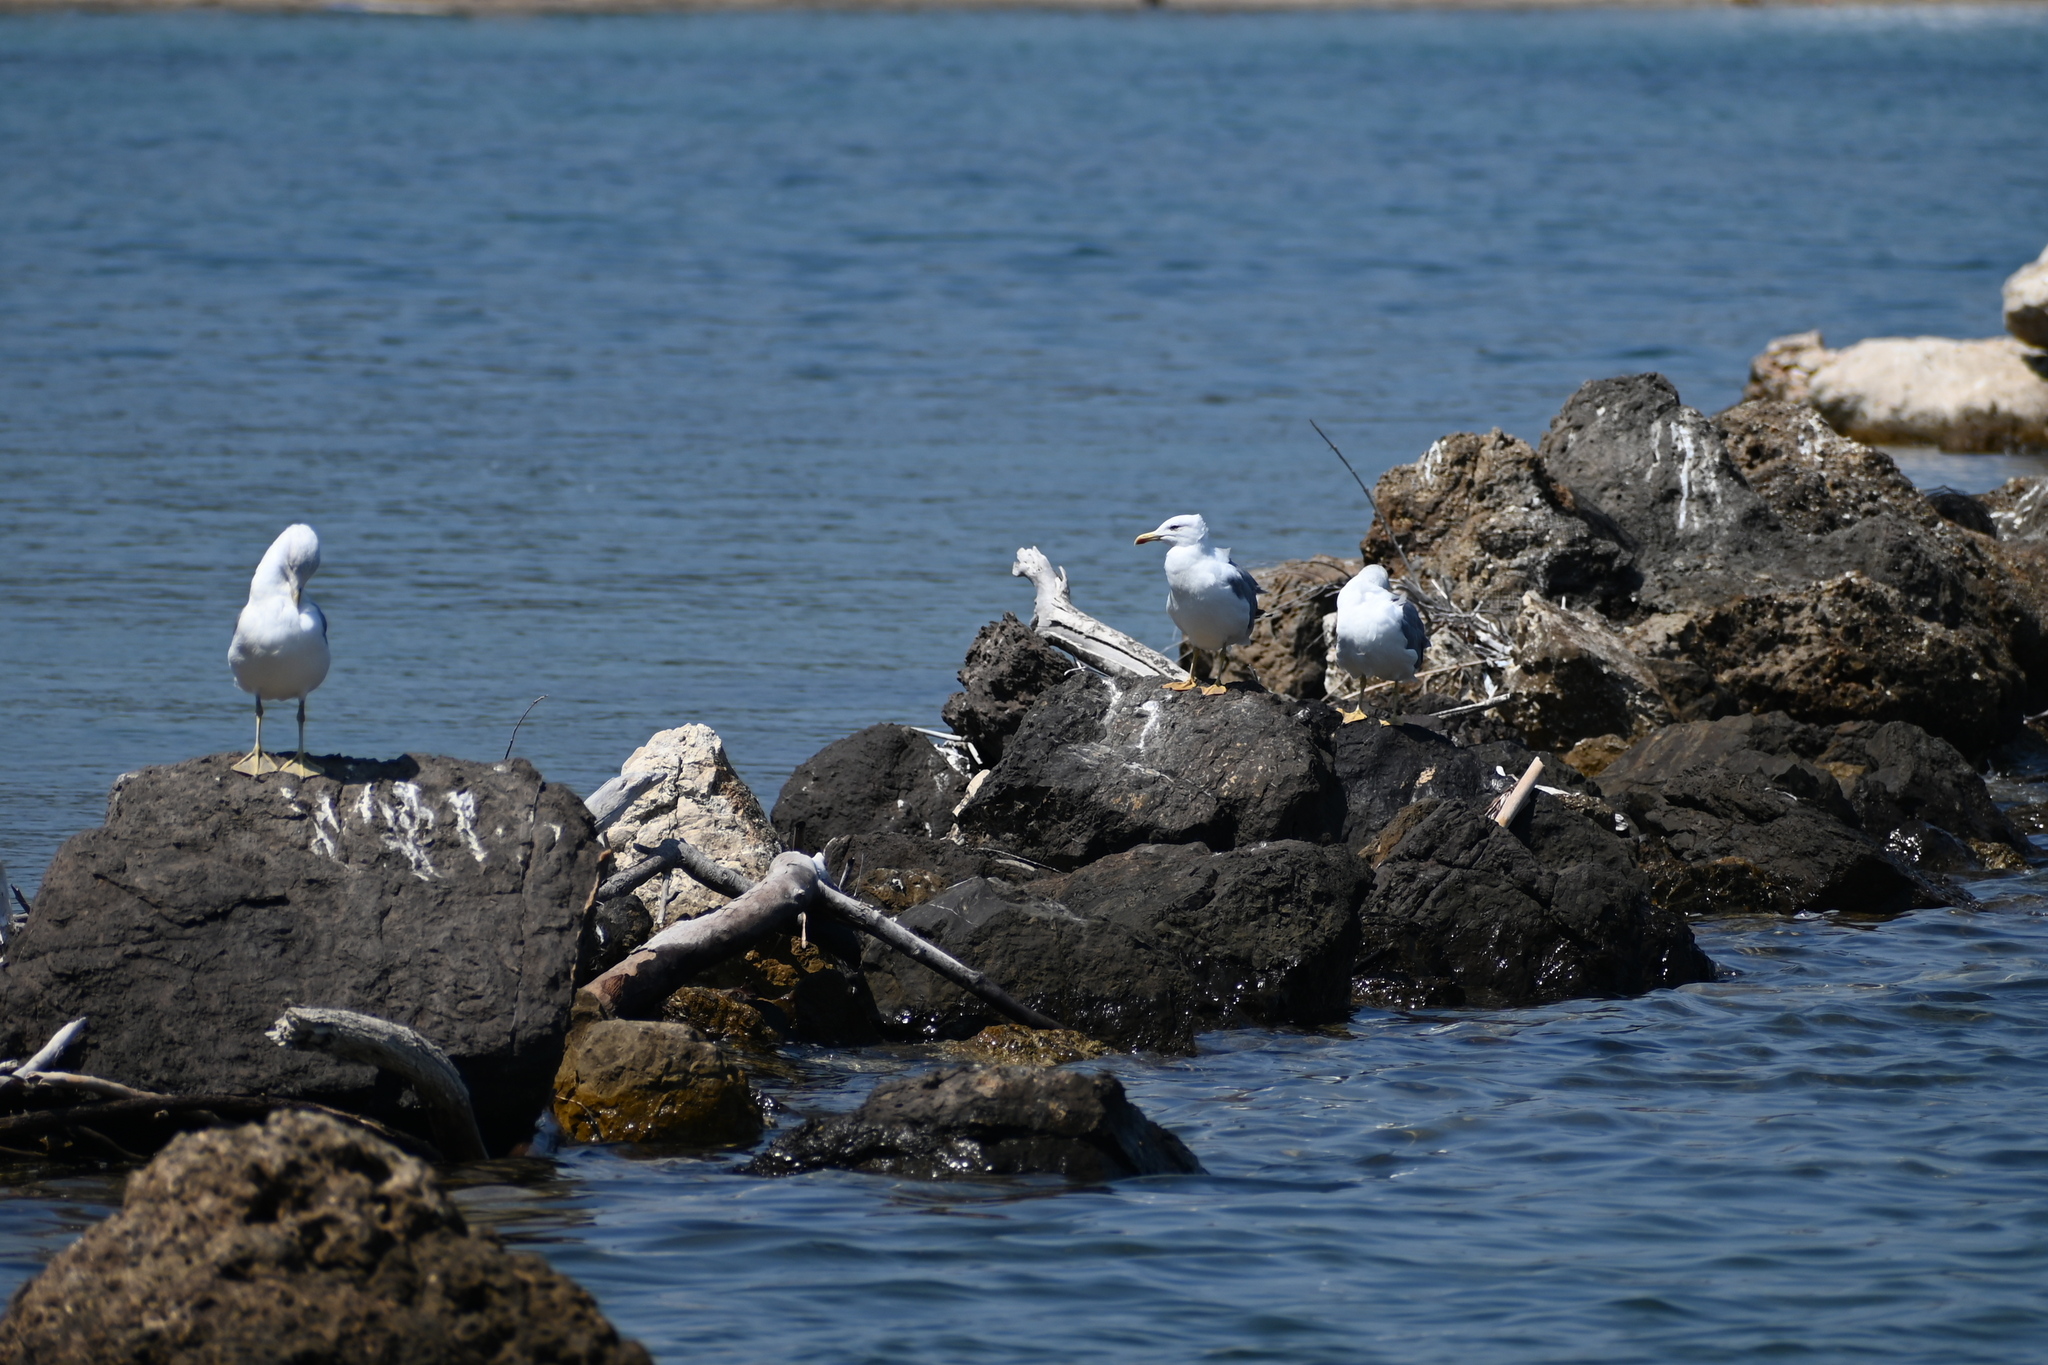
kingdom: Animalia
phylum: Chordata
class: Aves
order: Charadriiformes
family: Laridae
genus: Larus
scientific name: Larus michahellis
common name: Yellow-legged gull
